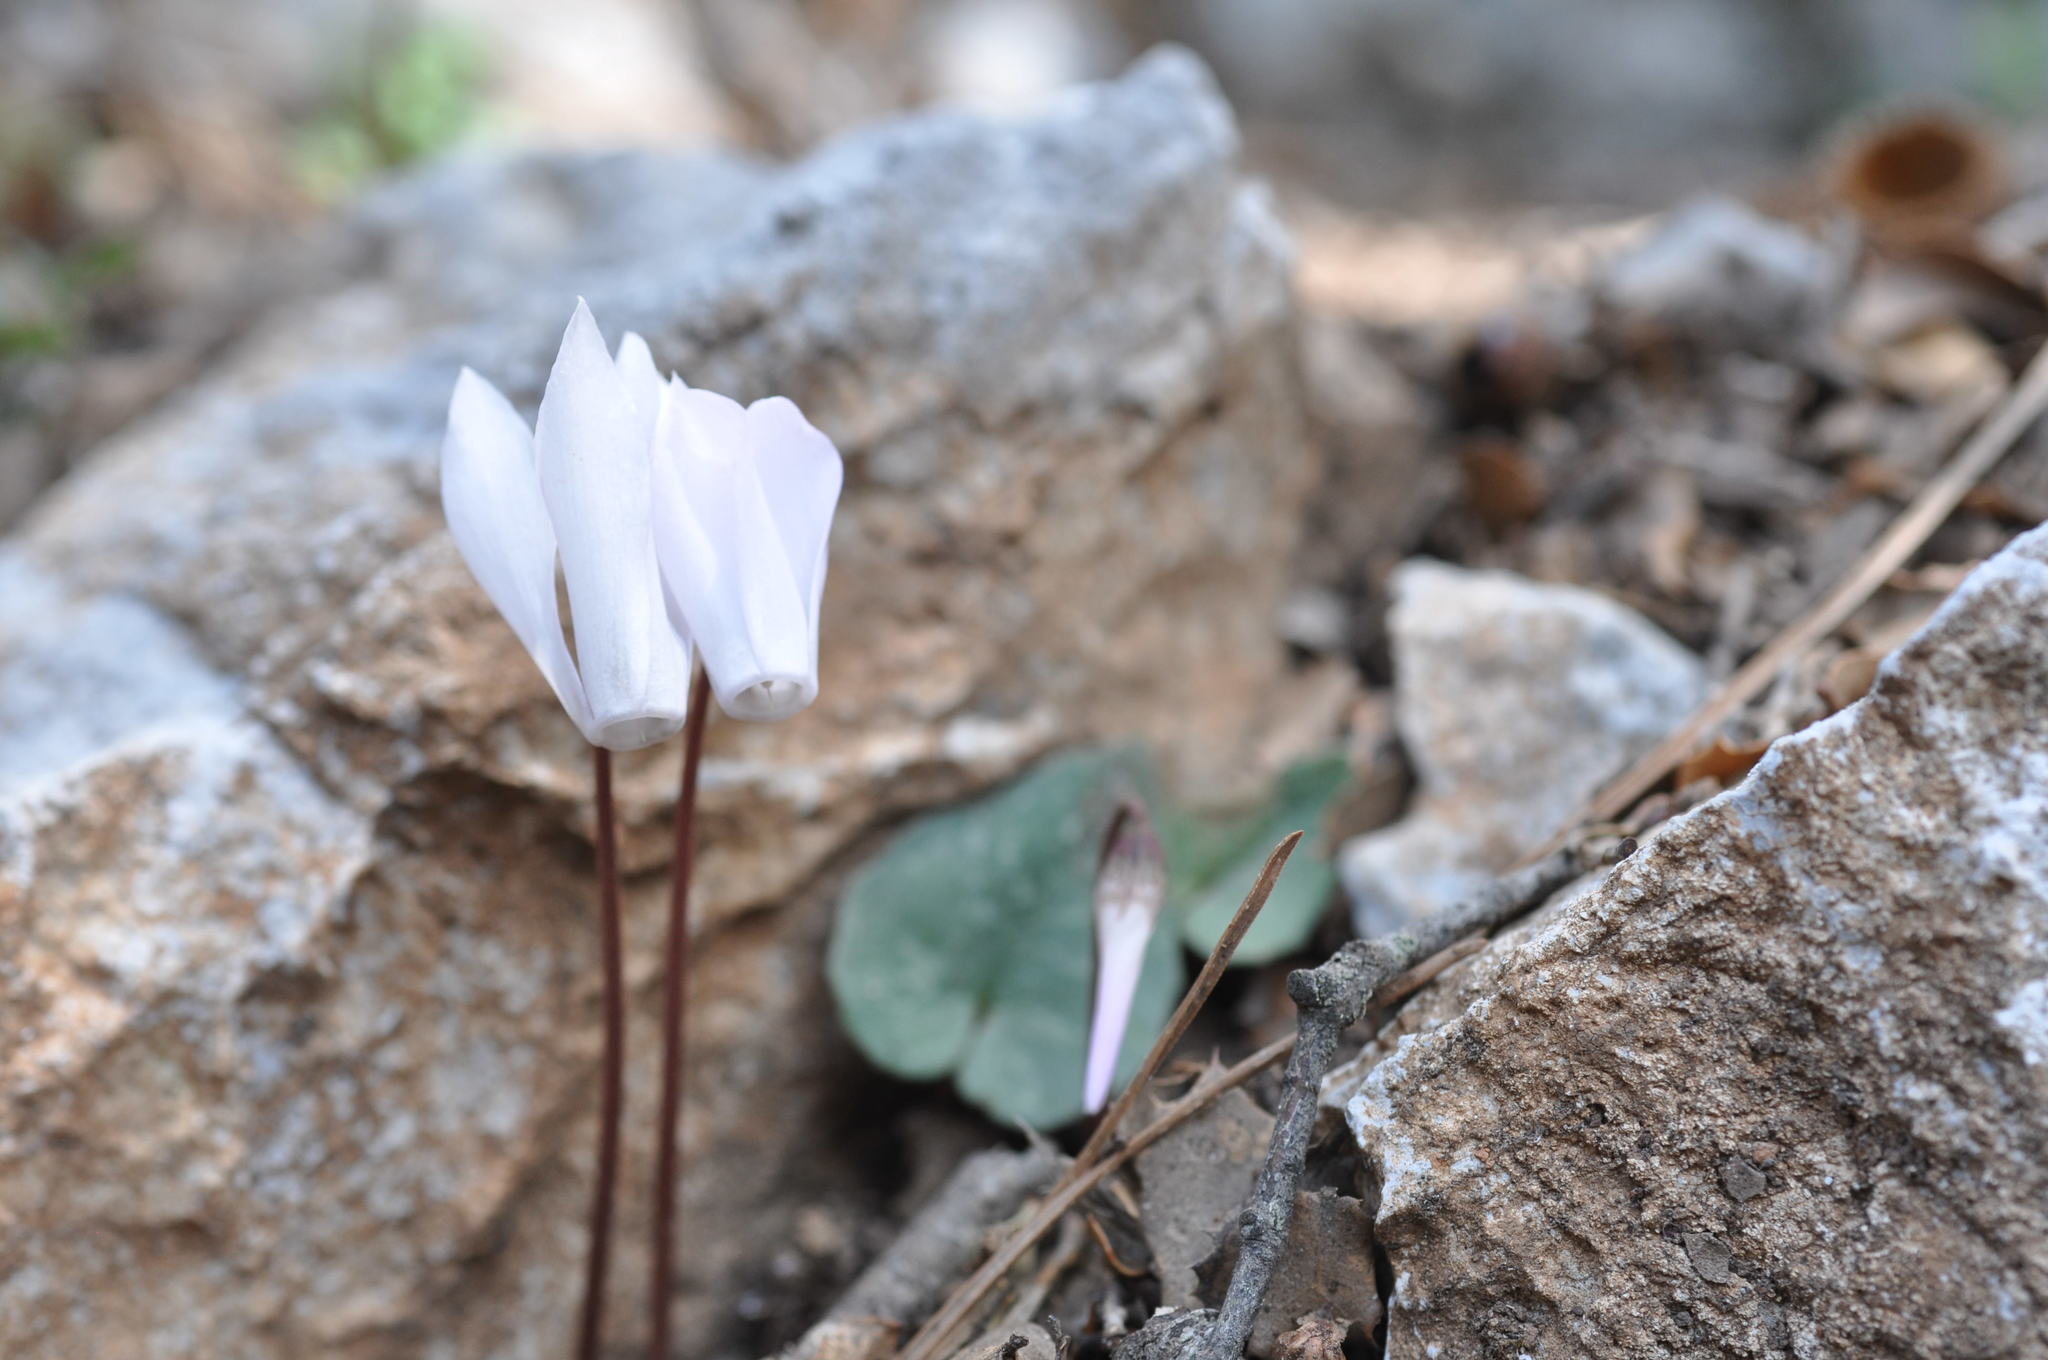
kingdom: Plantae
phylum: Tracheophyta
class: Magnoliopsida
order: Ericales
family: Primulaceae
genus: Cyclamen
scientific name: Cyclamen creticum
